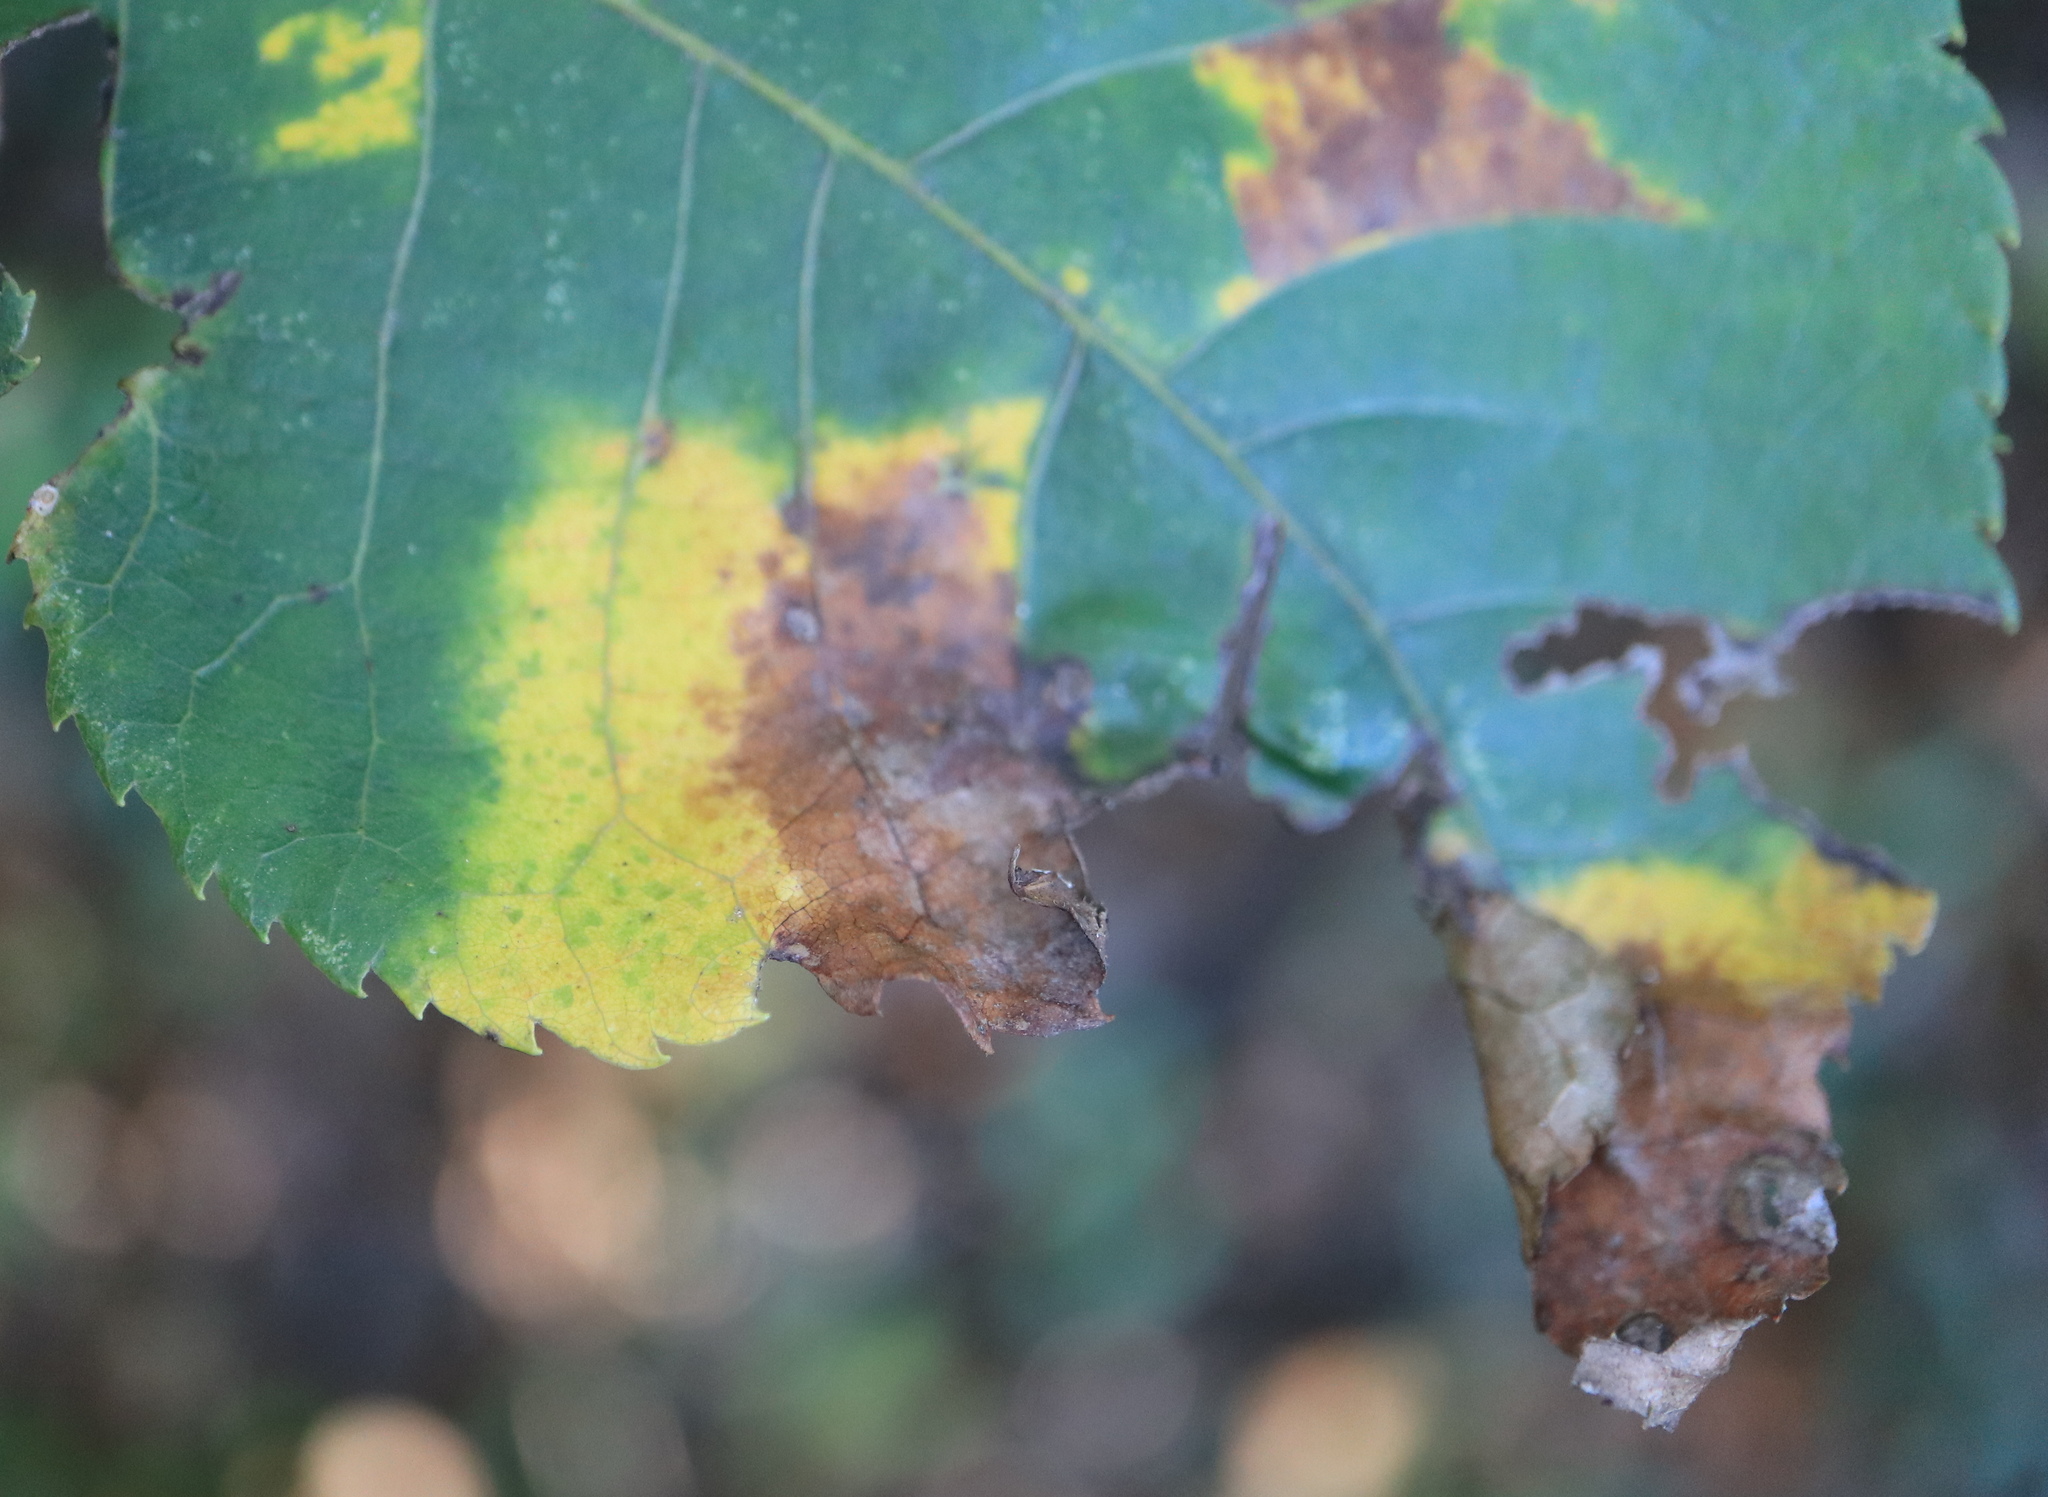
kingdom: Animalia
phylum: Arthropoda
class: Insecta
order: Diptera
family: Cecidomyiidae
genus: Caryomyia
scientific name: Caryomyia caryaecola
